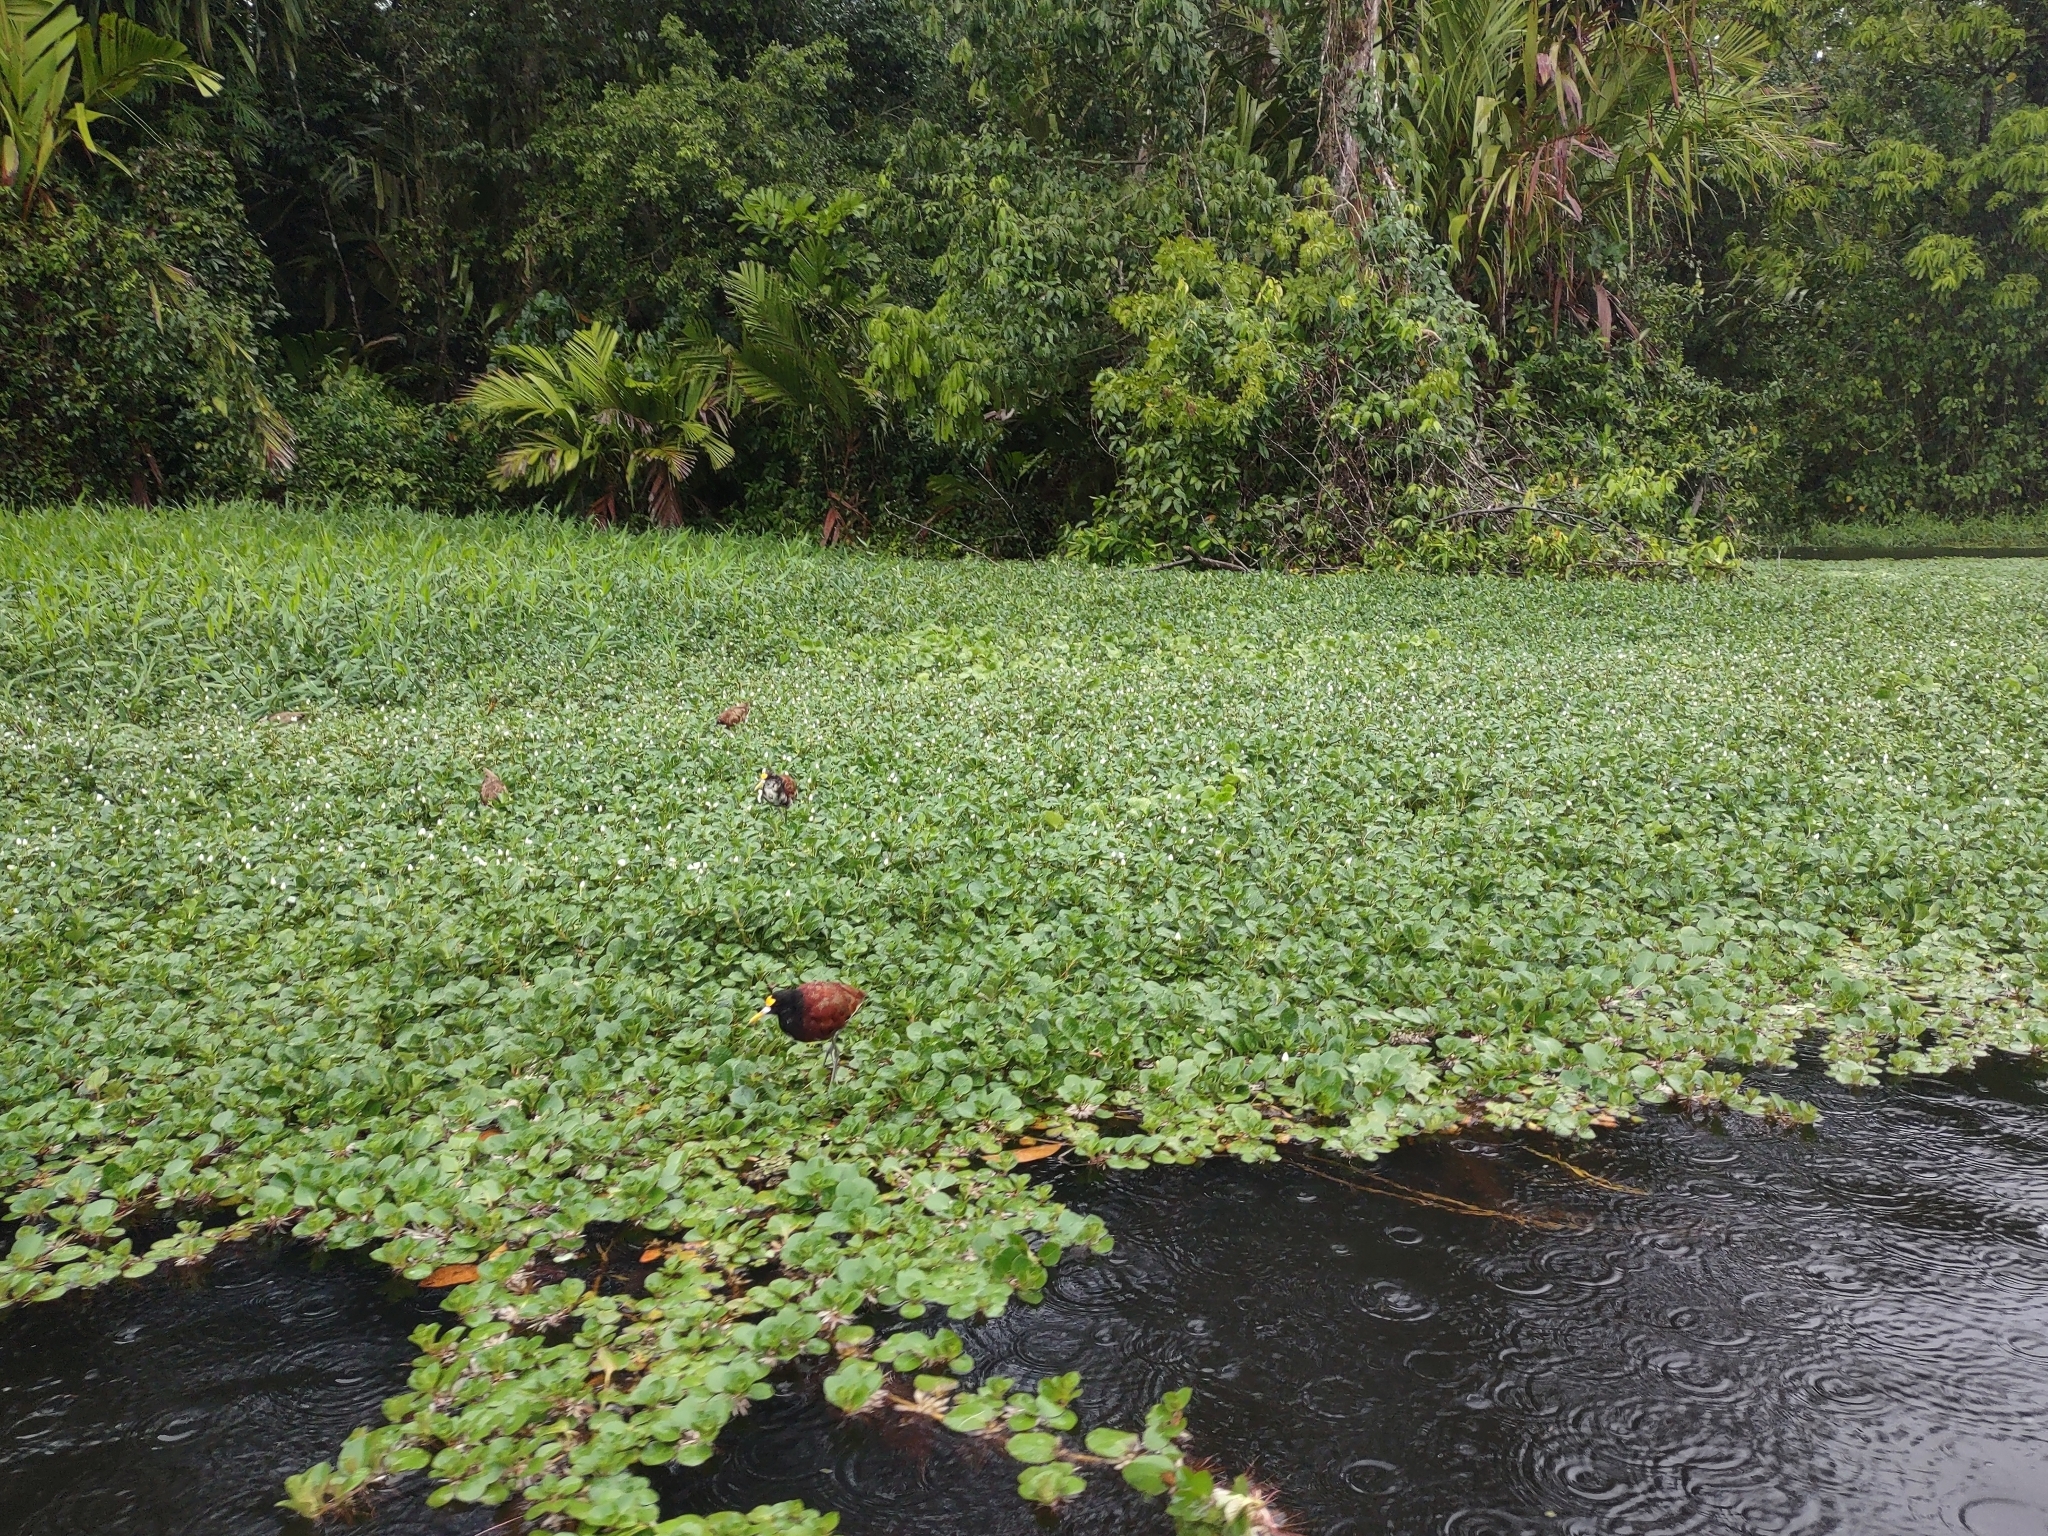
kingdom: Animalia
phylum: Chordata
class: Aves
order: Charadriiformes
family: Jacanidae
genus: Jacana
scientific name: Jacana spinosa
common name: Northern jacana
